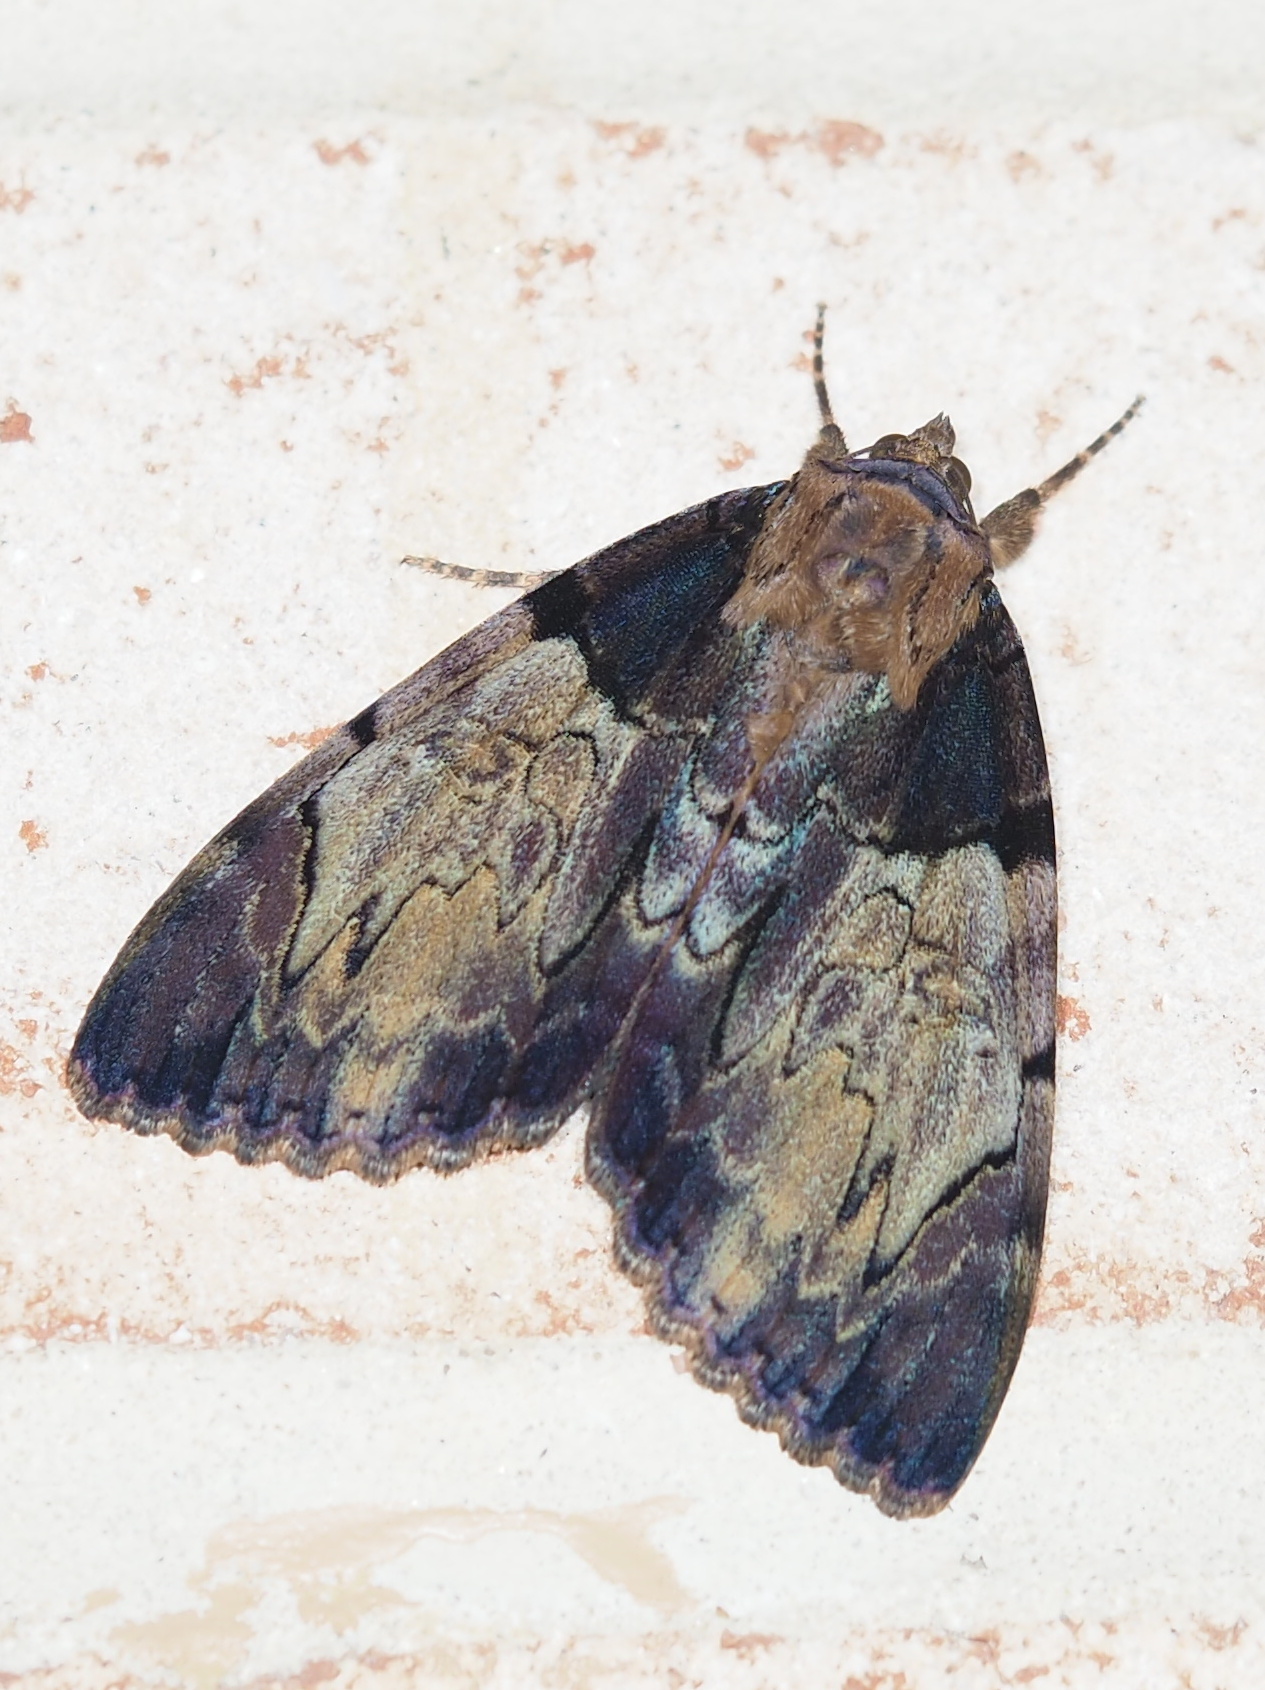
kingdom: Animalia
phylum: Arthropoda
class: Insecta
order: Lepidoptera
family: Erebidae
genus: Catocala
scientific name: Catocala nebulosa
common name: Clouded underwing
